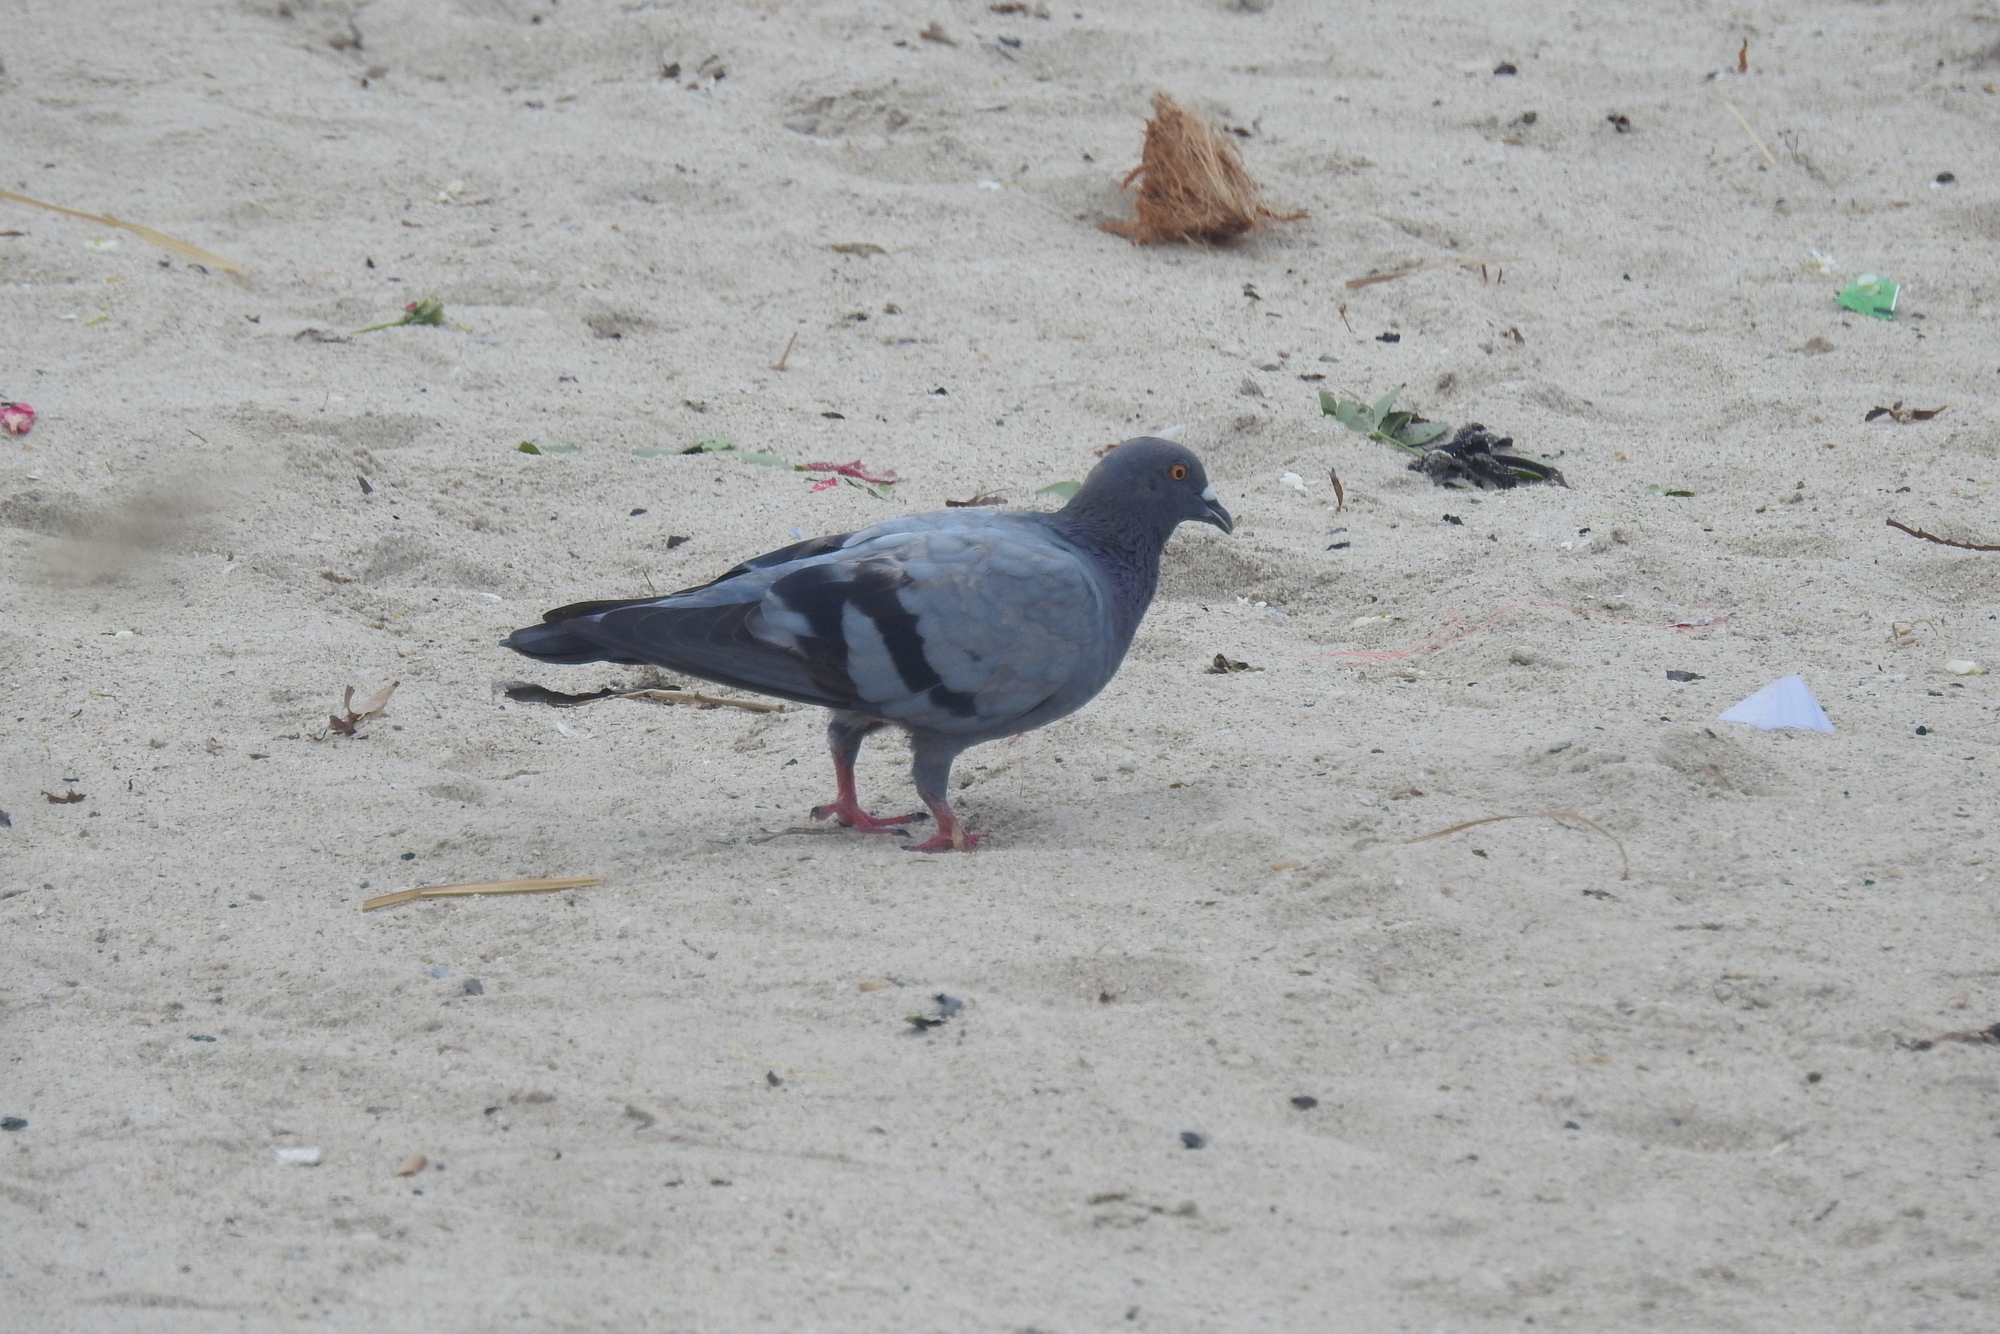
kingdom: Animalia
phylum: Chordata
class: Aves
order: Columbiformes
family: Columbidae
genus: Columba
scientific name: Columba livia
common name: Rock pigeon
